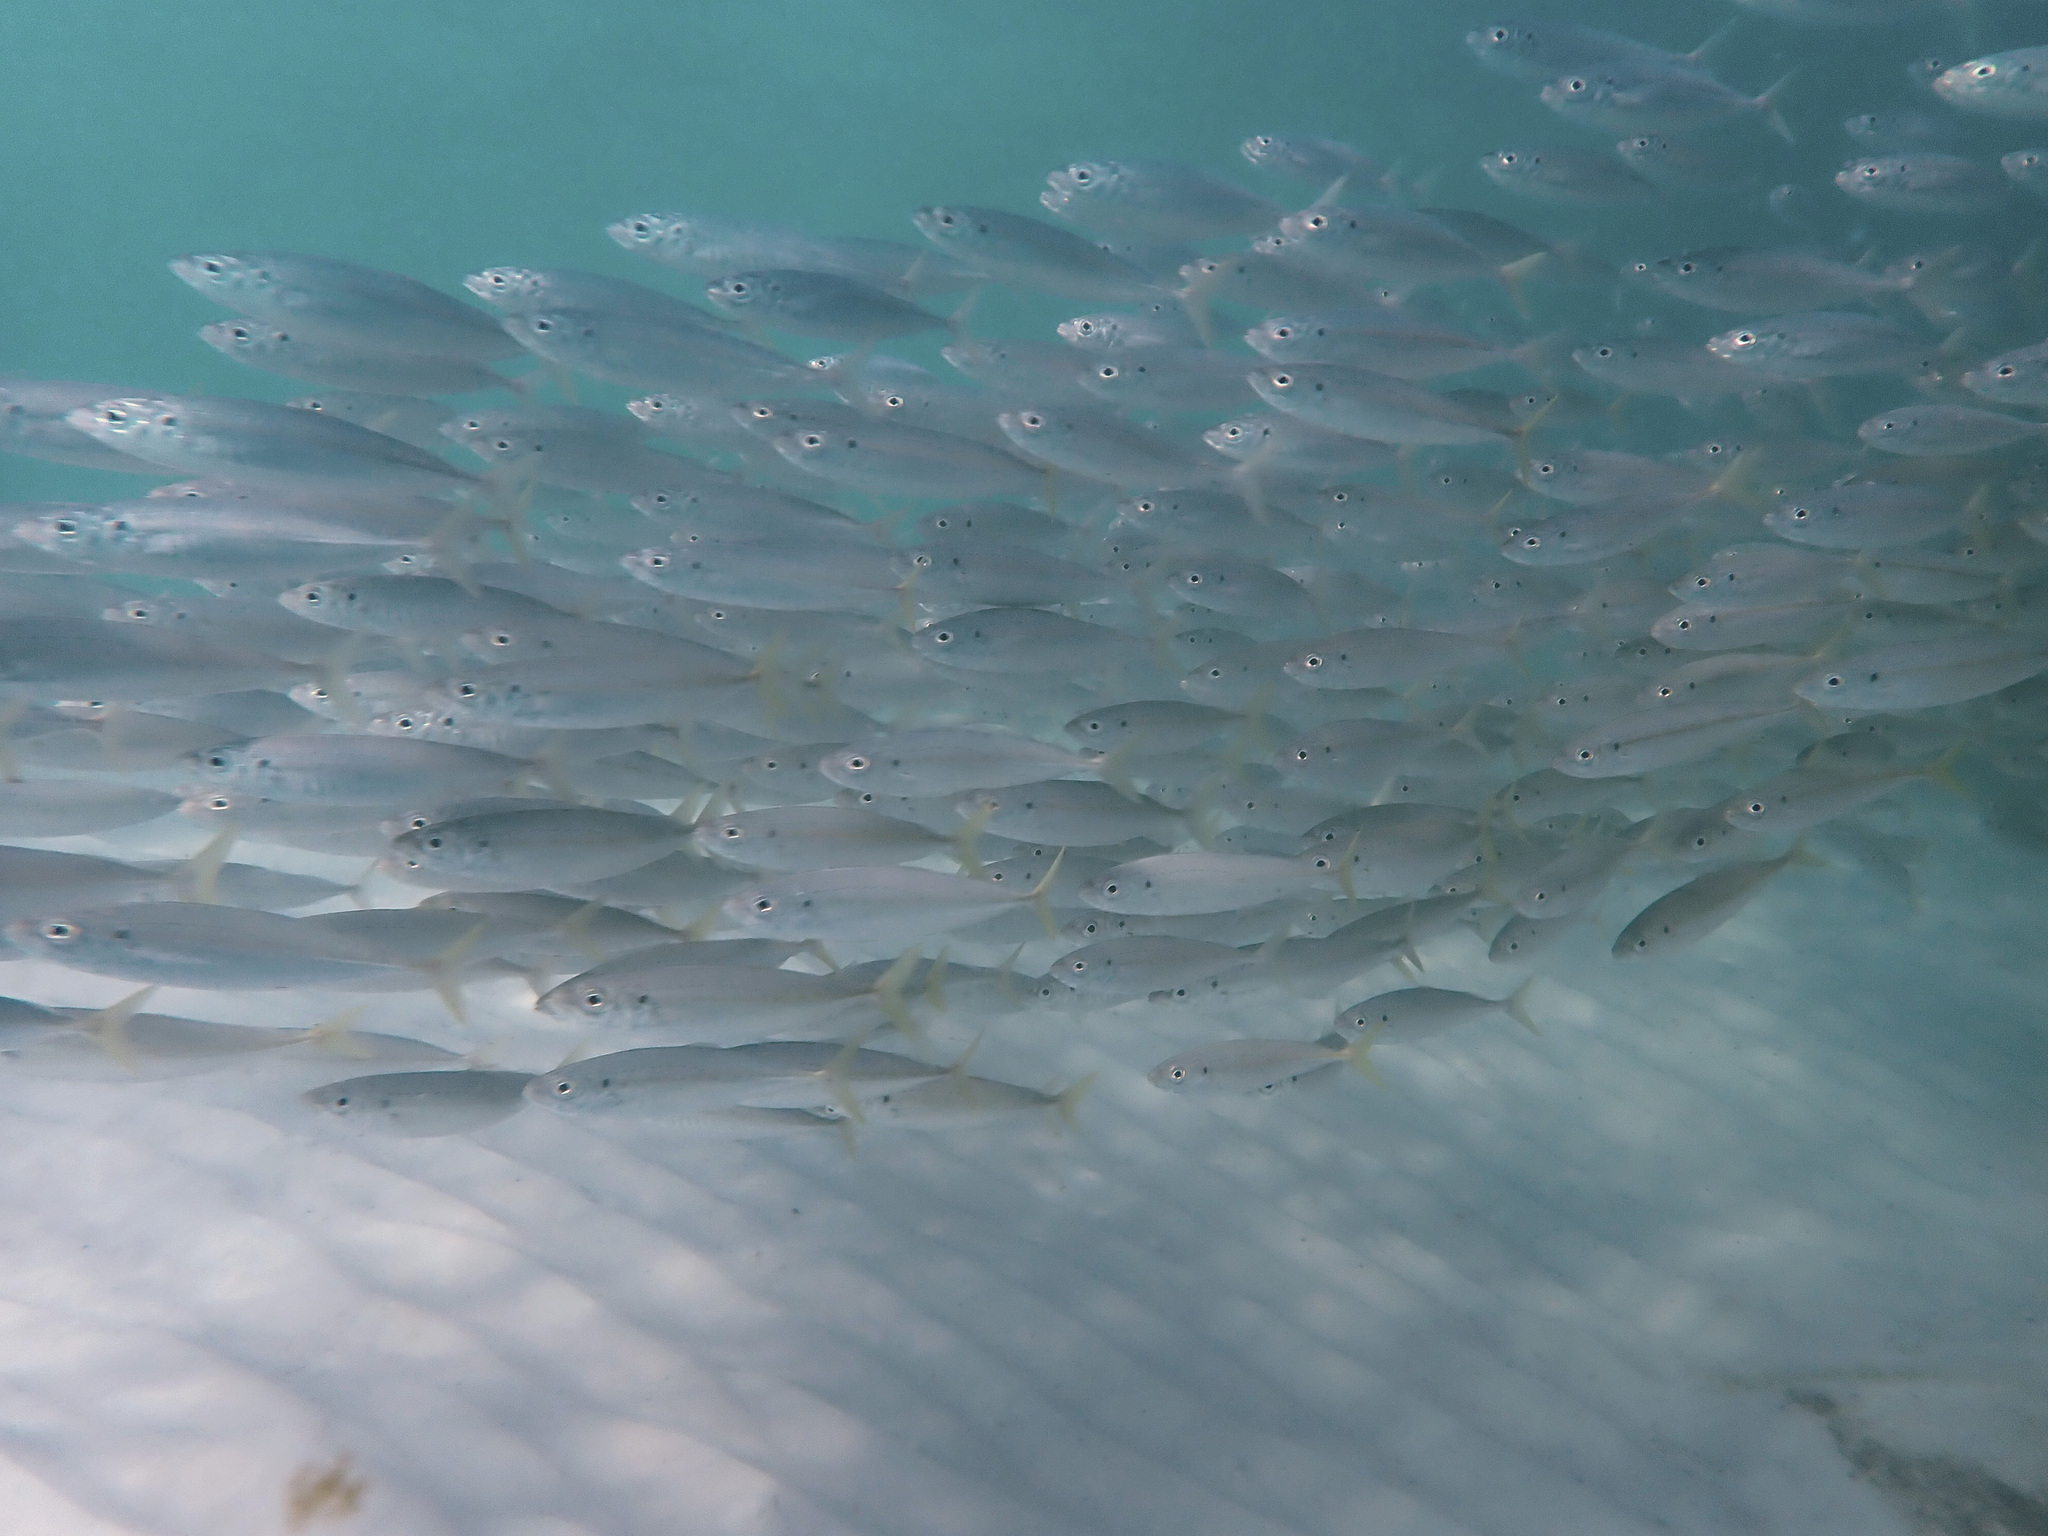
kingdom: Animalia
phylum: Chordata
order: Perciformes
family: Carangidae
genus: Decapterus
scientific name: Decapterus punctatus
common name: Cigarfish
